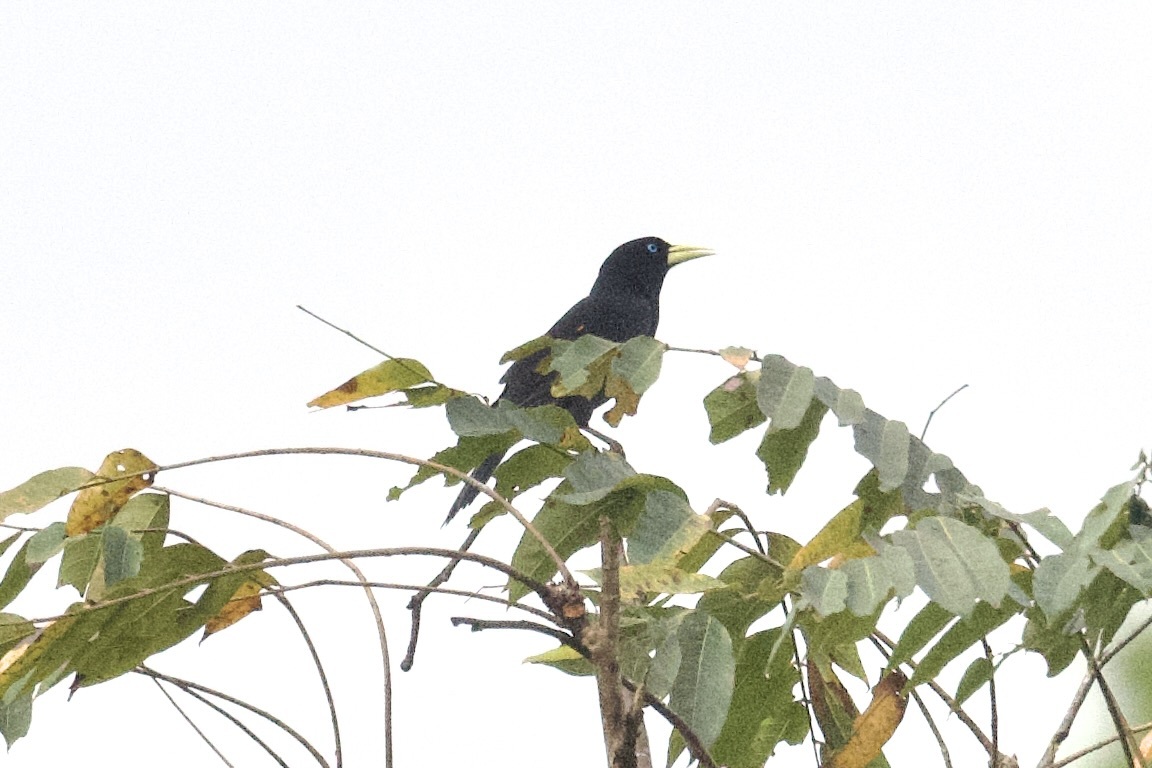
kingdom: Animalia
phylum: Chordata
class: Aves
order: Passeriformes
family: Icteridae
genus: Cacicus
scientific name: Cacicus cela
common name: Yellow-rumped cacique
